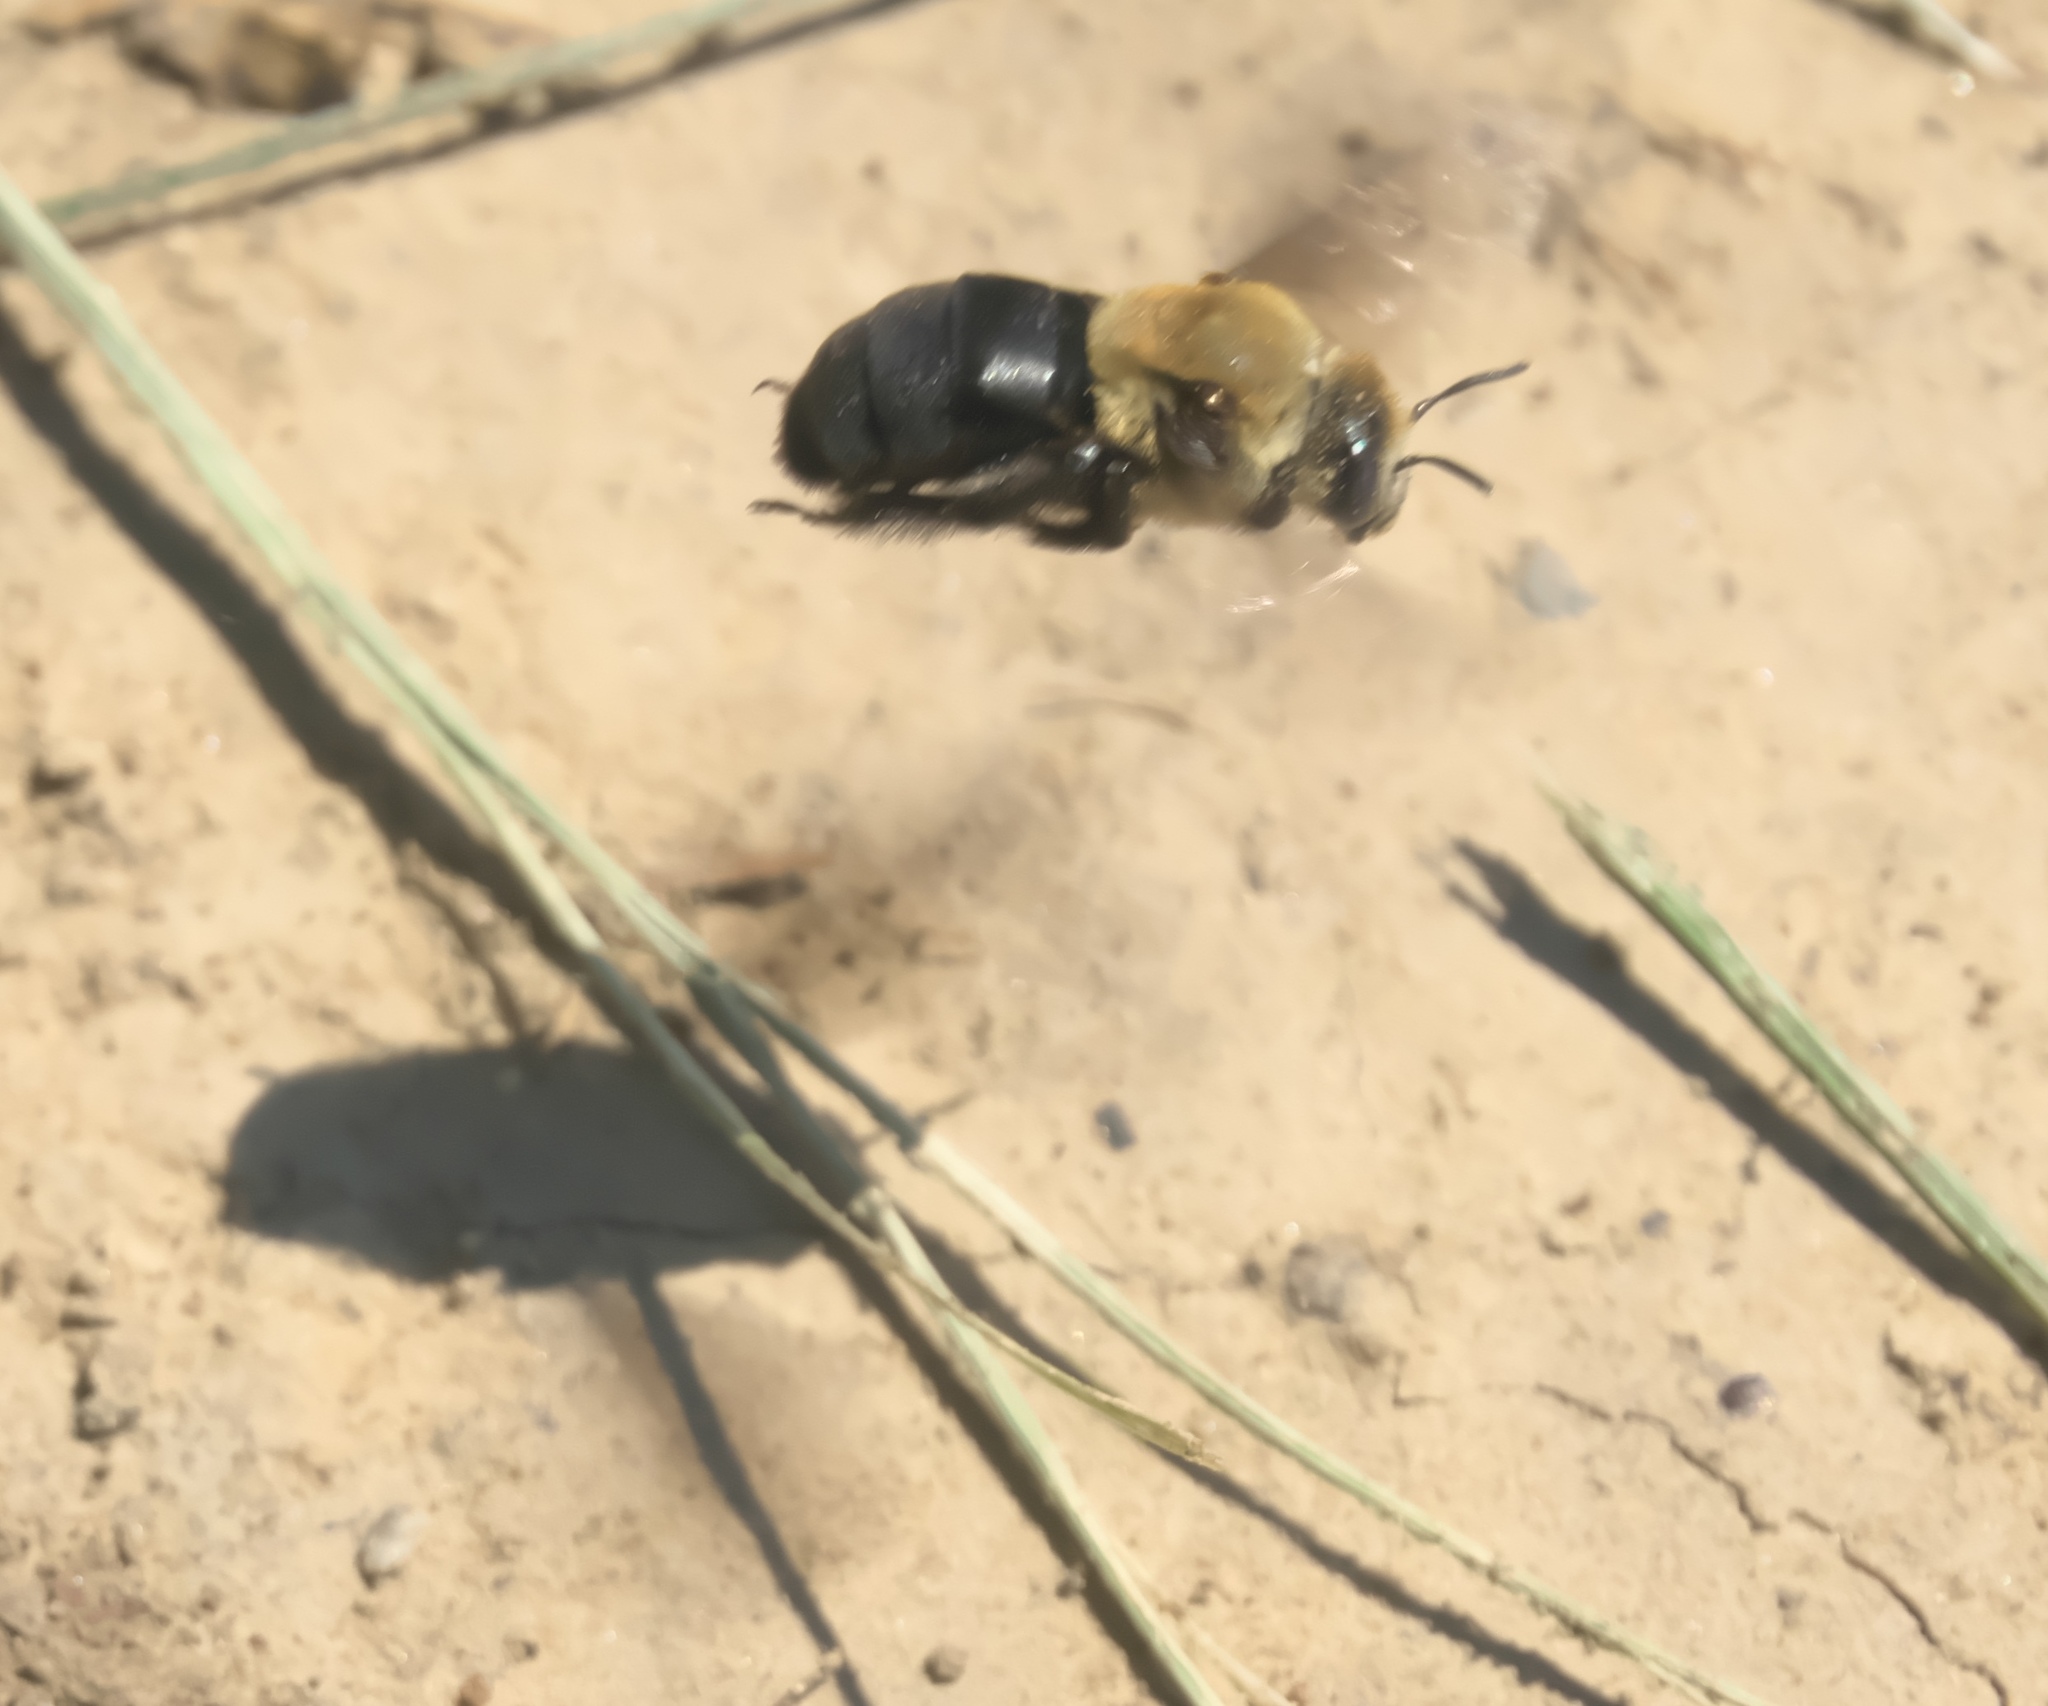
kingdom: Animalia
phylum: Arthropoda
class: Insecta
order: Hymenoptera
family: Apidae
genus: Ptilothrix
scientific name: Ptilothrix bombiformis
